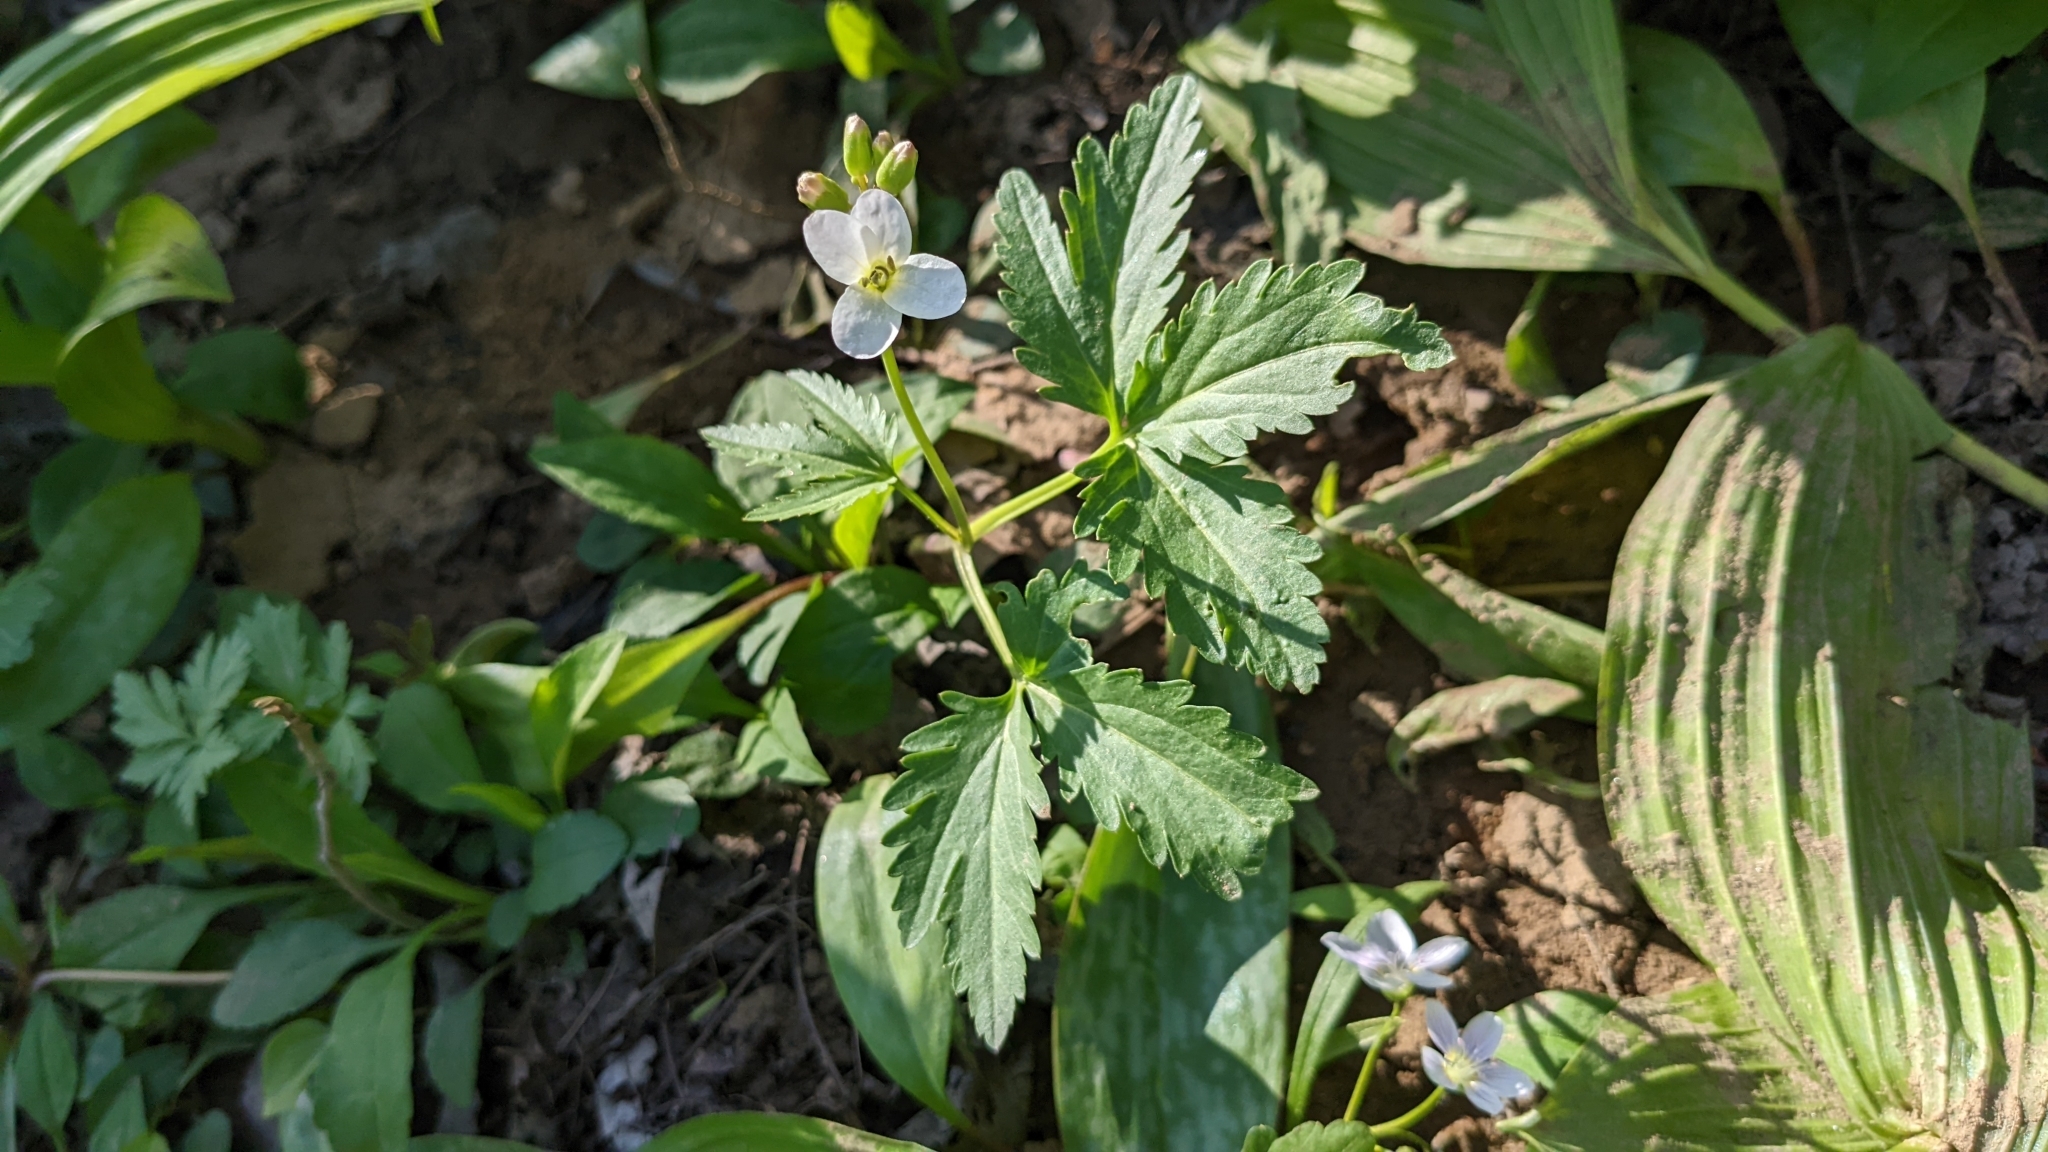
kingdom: Plantae
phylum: Tracheophyta
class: Magnoliopsida
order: Brassicales
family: Brassicaceae
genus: Cardamine
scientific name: Cardamine diphylla
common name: Broad-leaved toothwort
